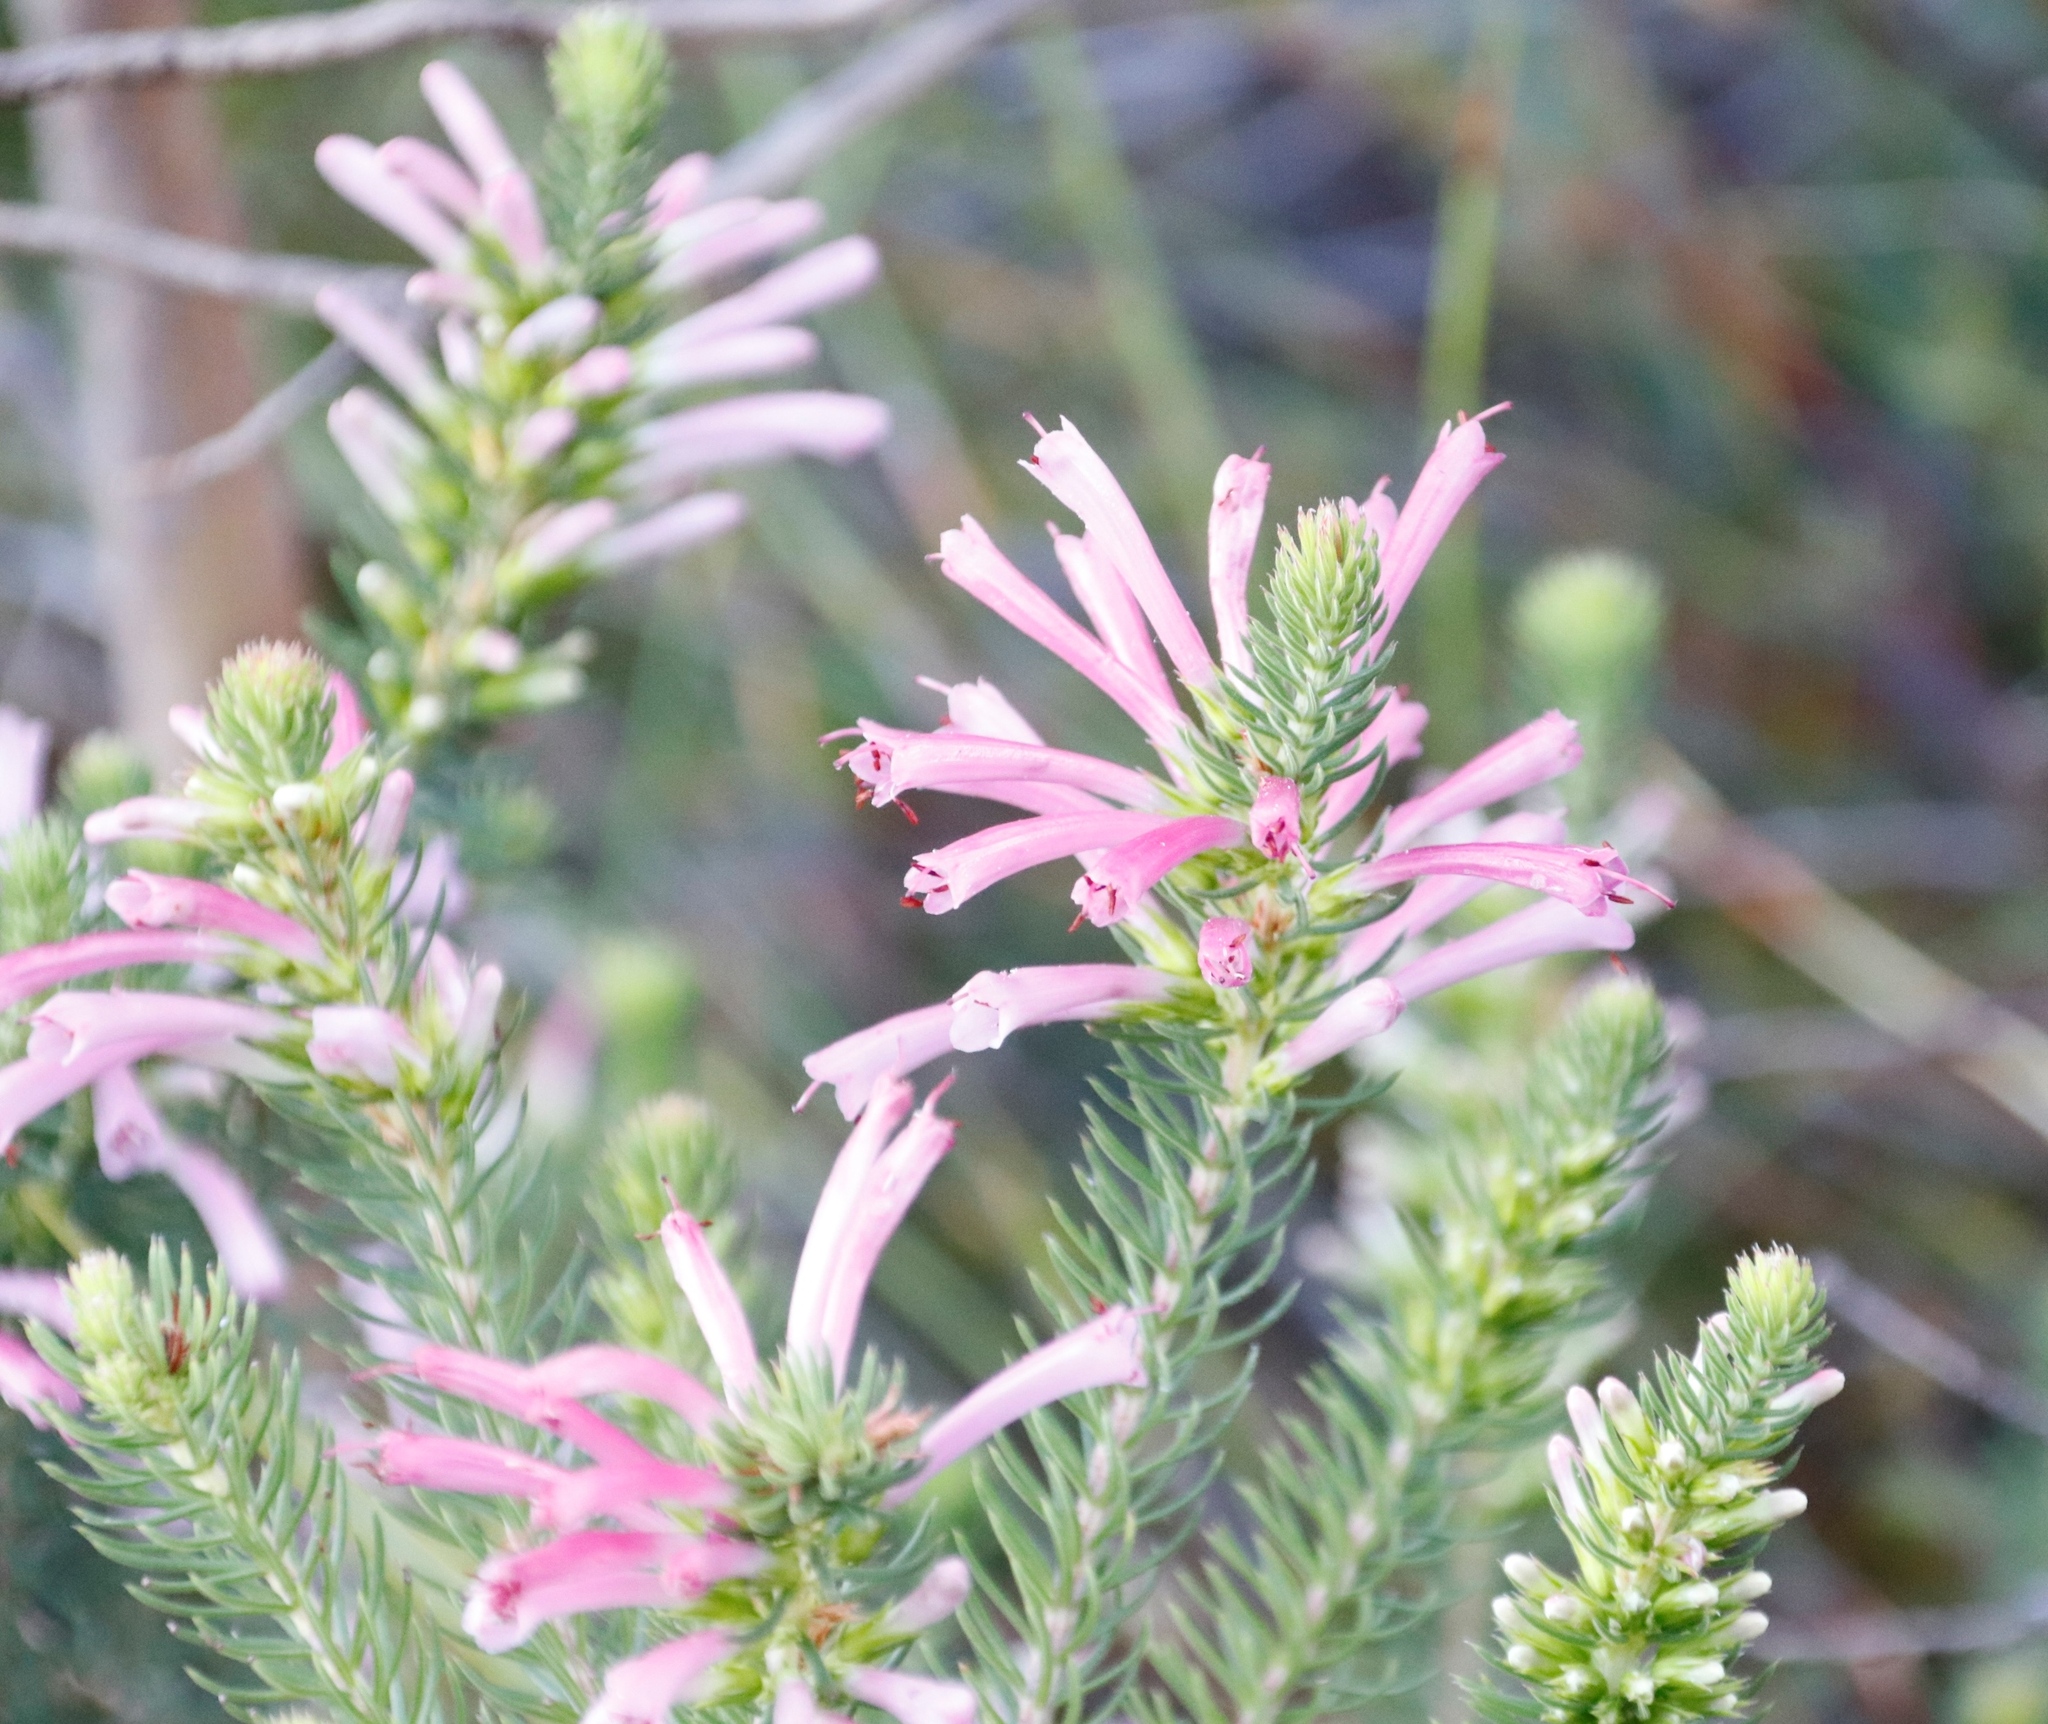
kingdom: Plantae
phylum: Tracheophyta
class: Magnoliopsida
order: Ericales
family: Ericaceae
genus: Erica
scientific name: Erica abietina
